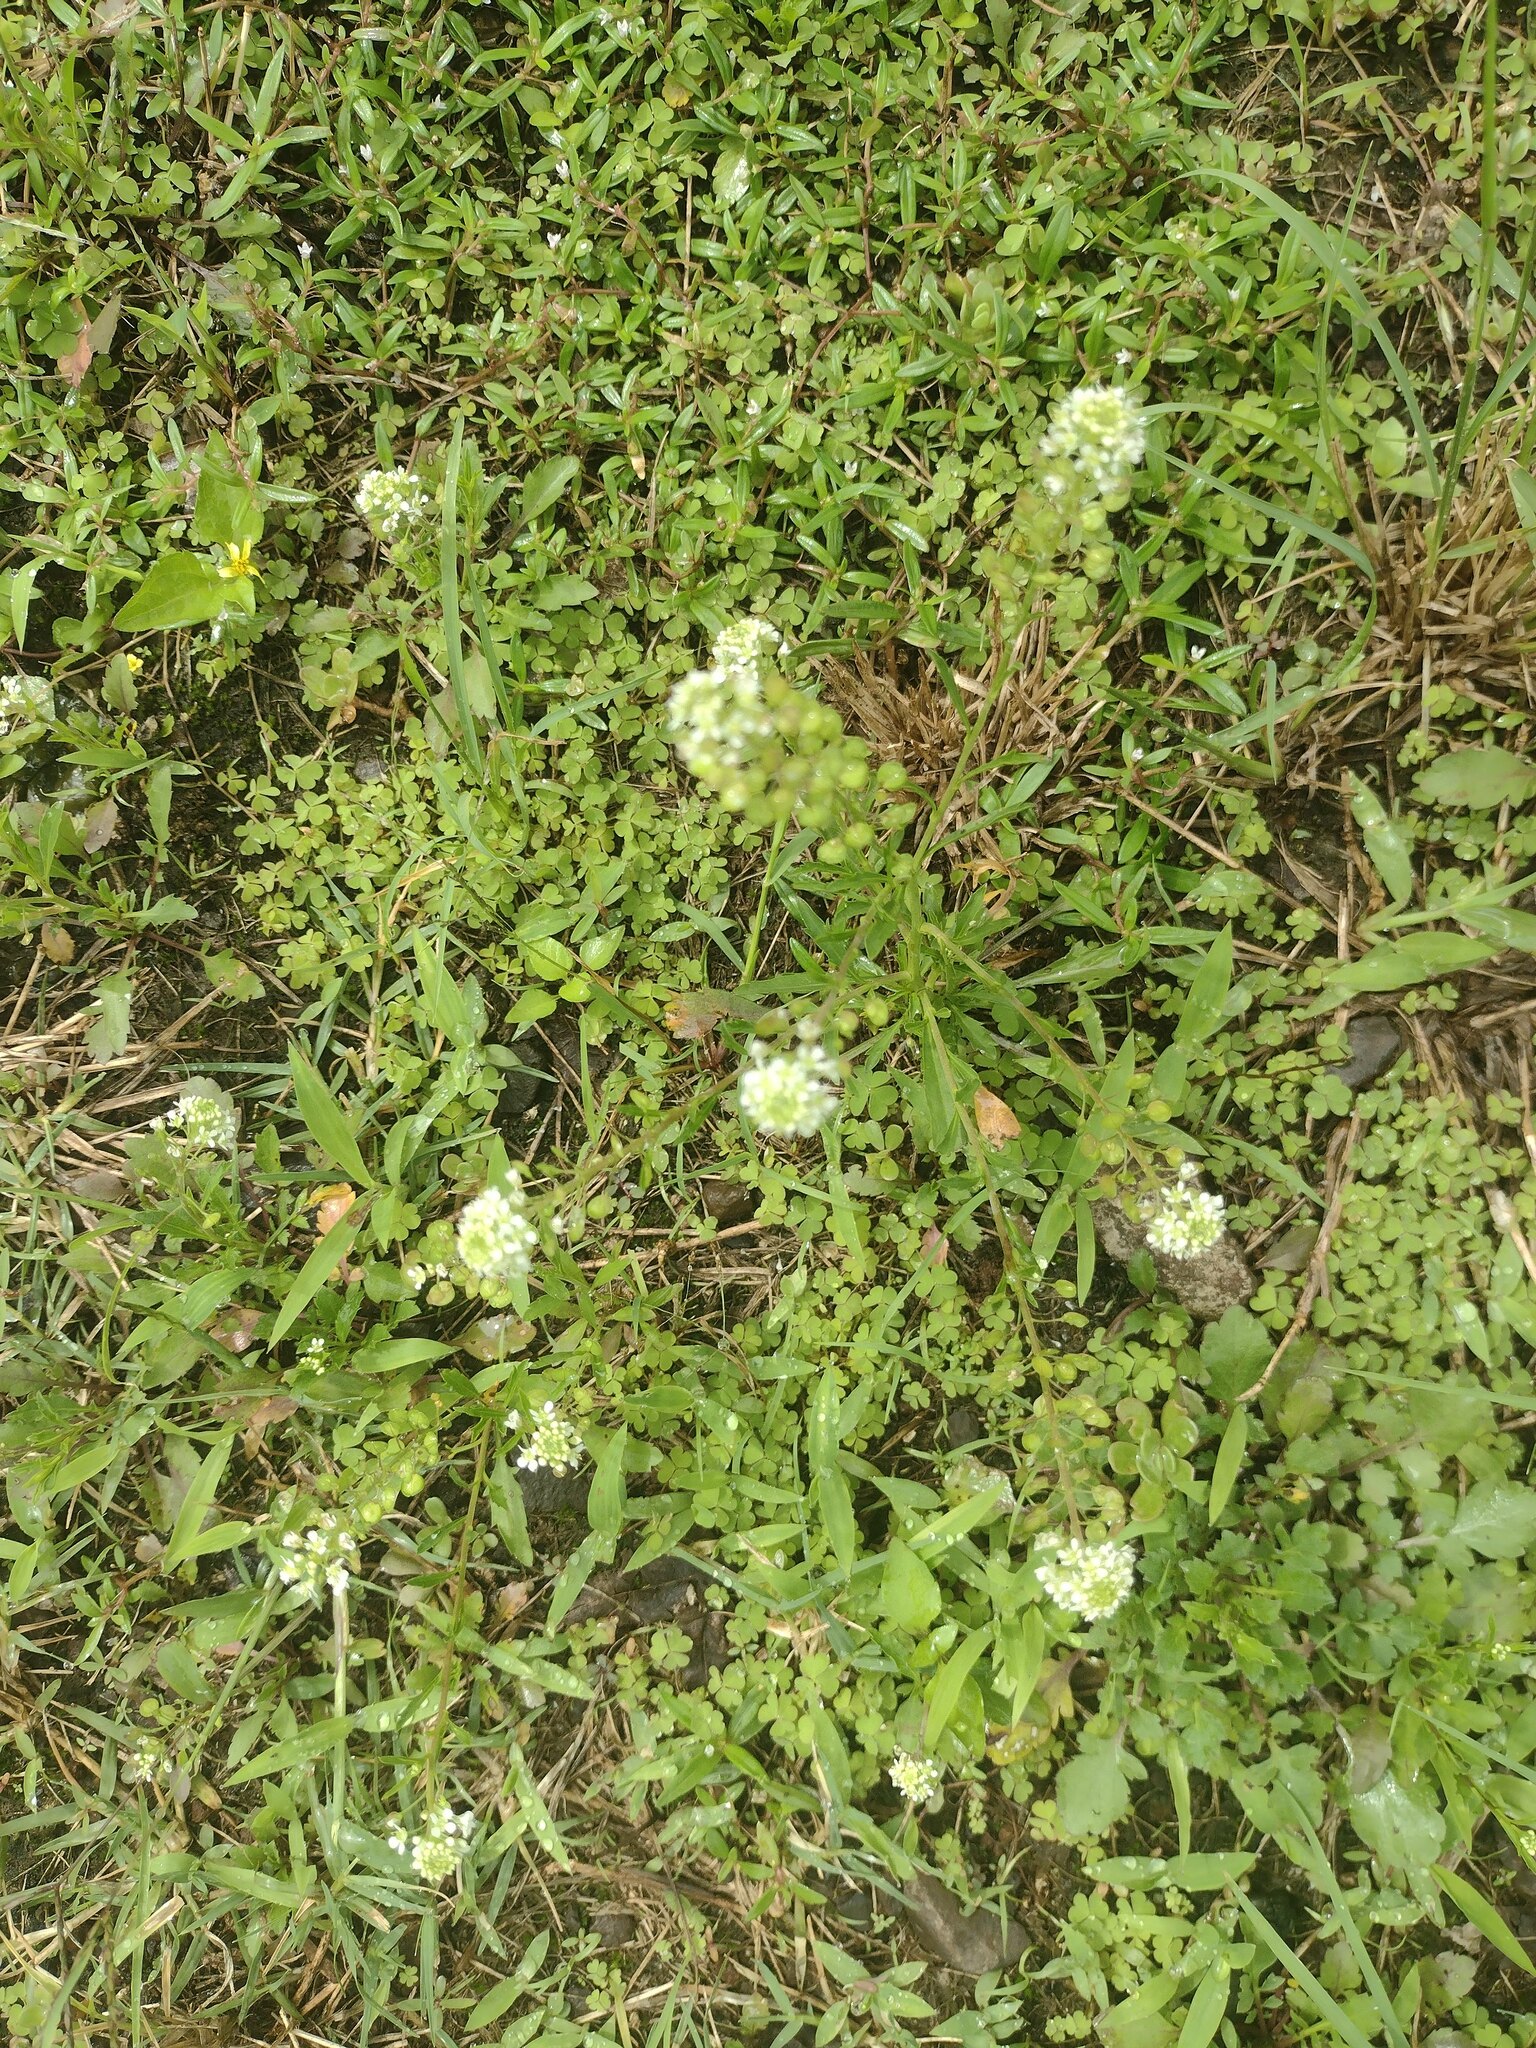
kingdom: Plantae
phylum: Tracheophyta
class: Magnoliopsida
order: Brassicales
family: Brassicaceae
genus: Lepidium
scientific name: Lepidium virginicum
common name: Least pepperwort
